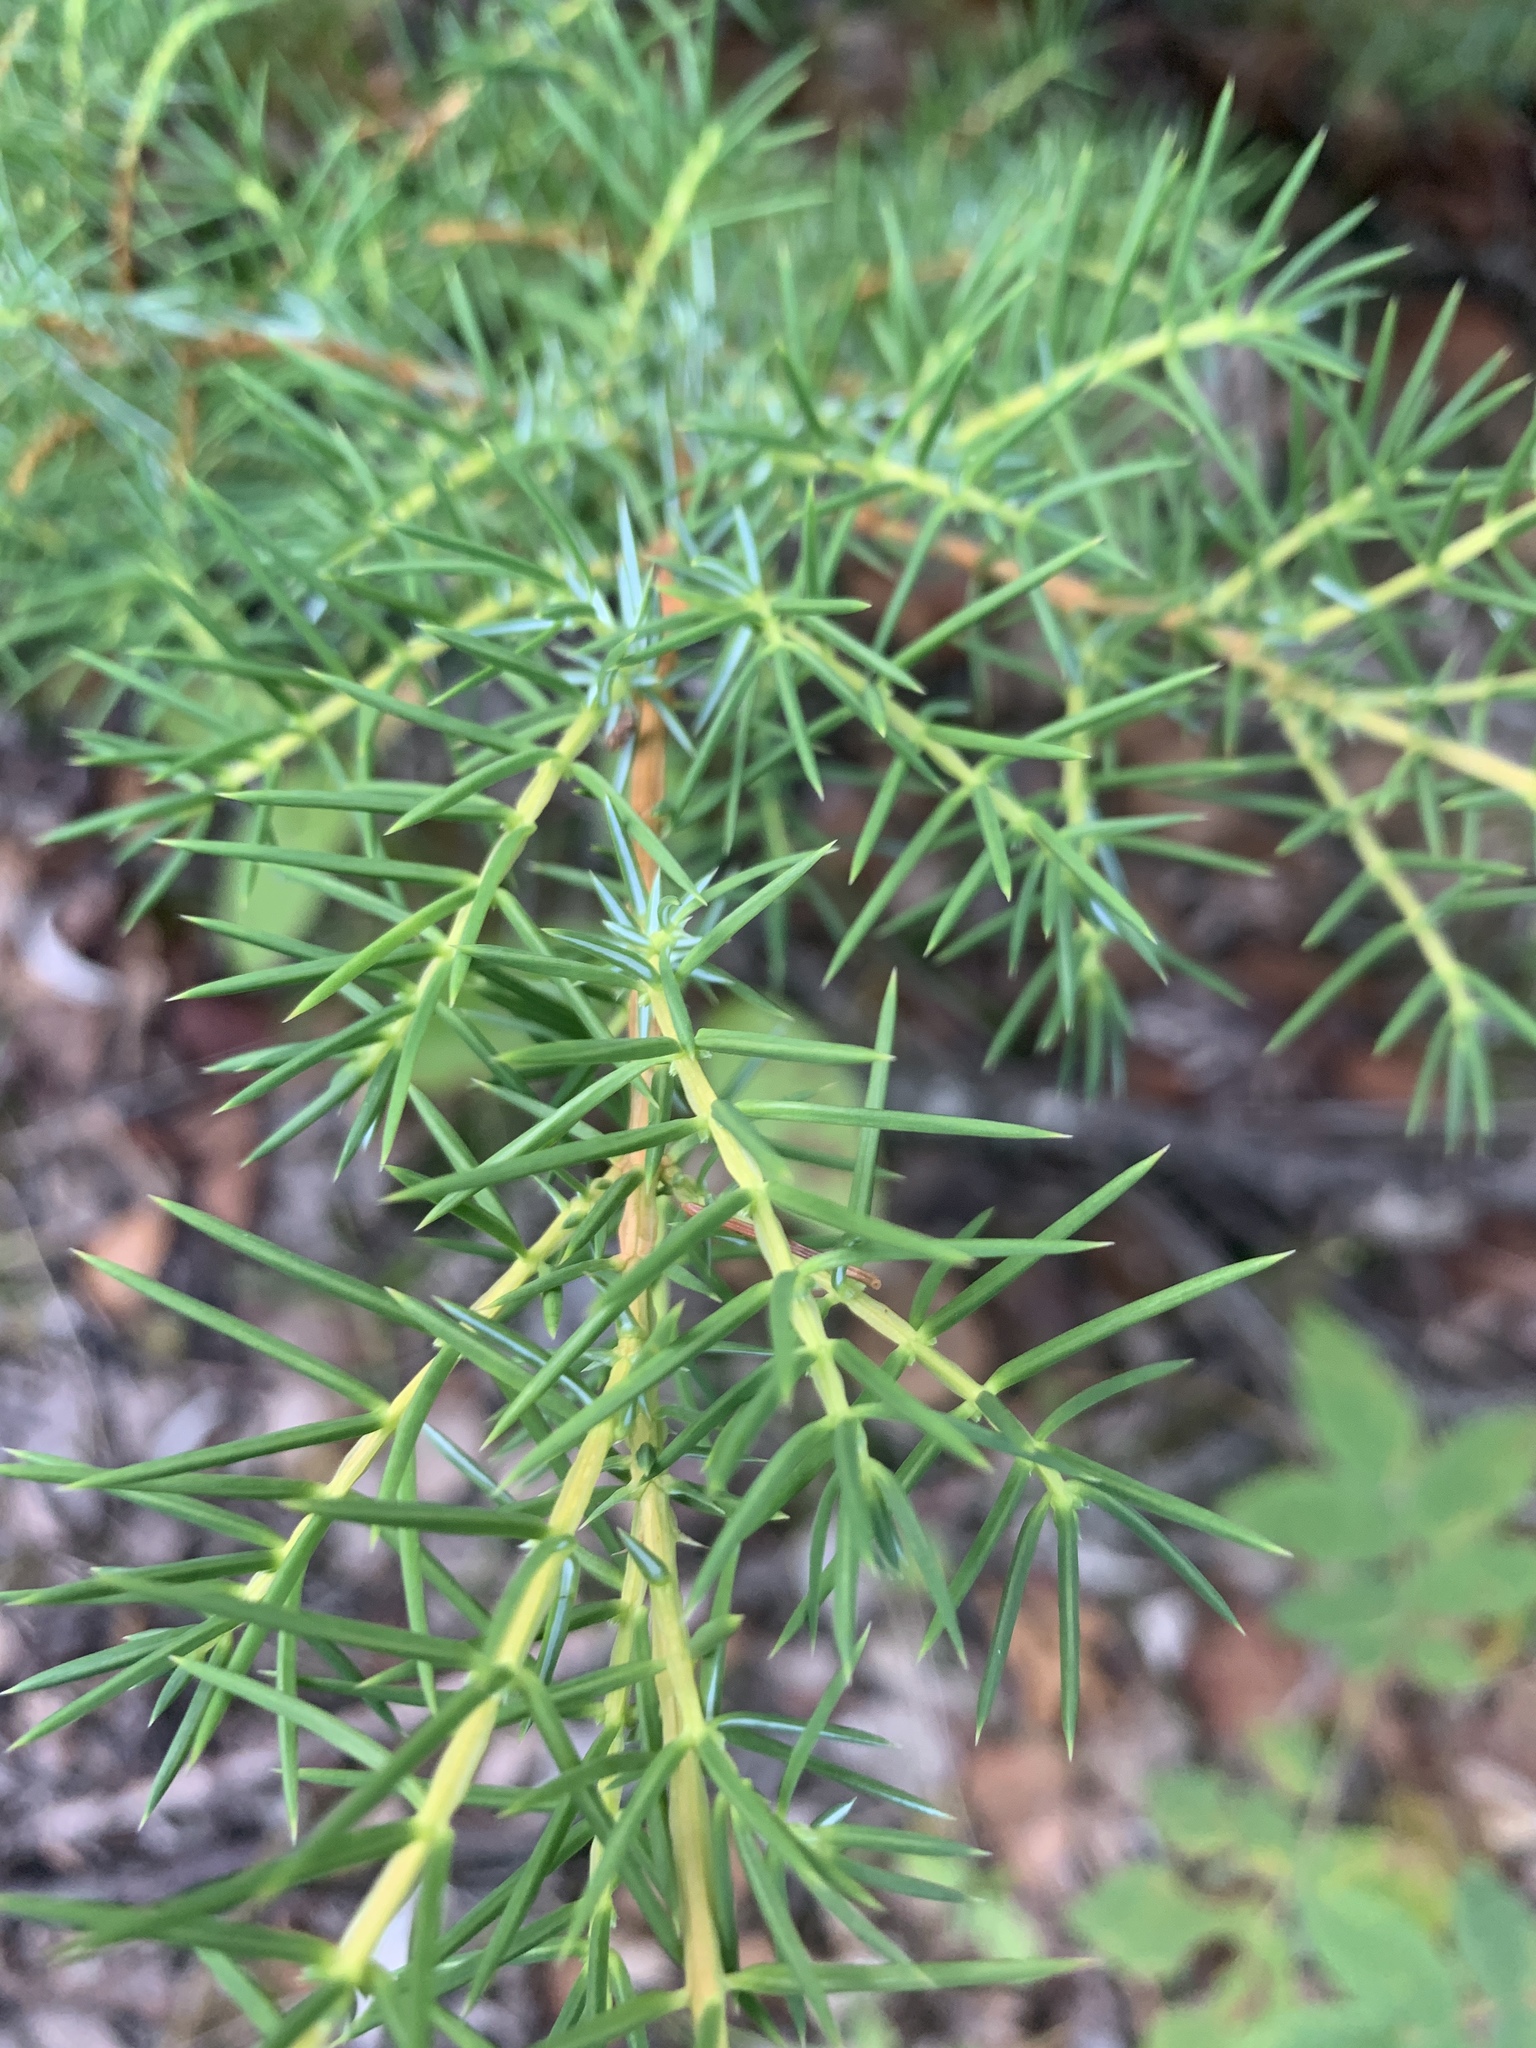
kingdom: Plantae
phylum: Tracheophyta
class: Pinopsida
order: Pinales
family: Cupressaceae
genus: Juniperus
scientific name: Juniperus communis
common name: Common juniper
